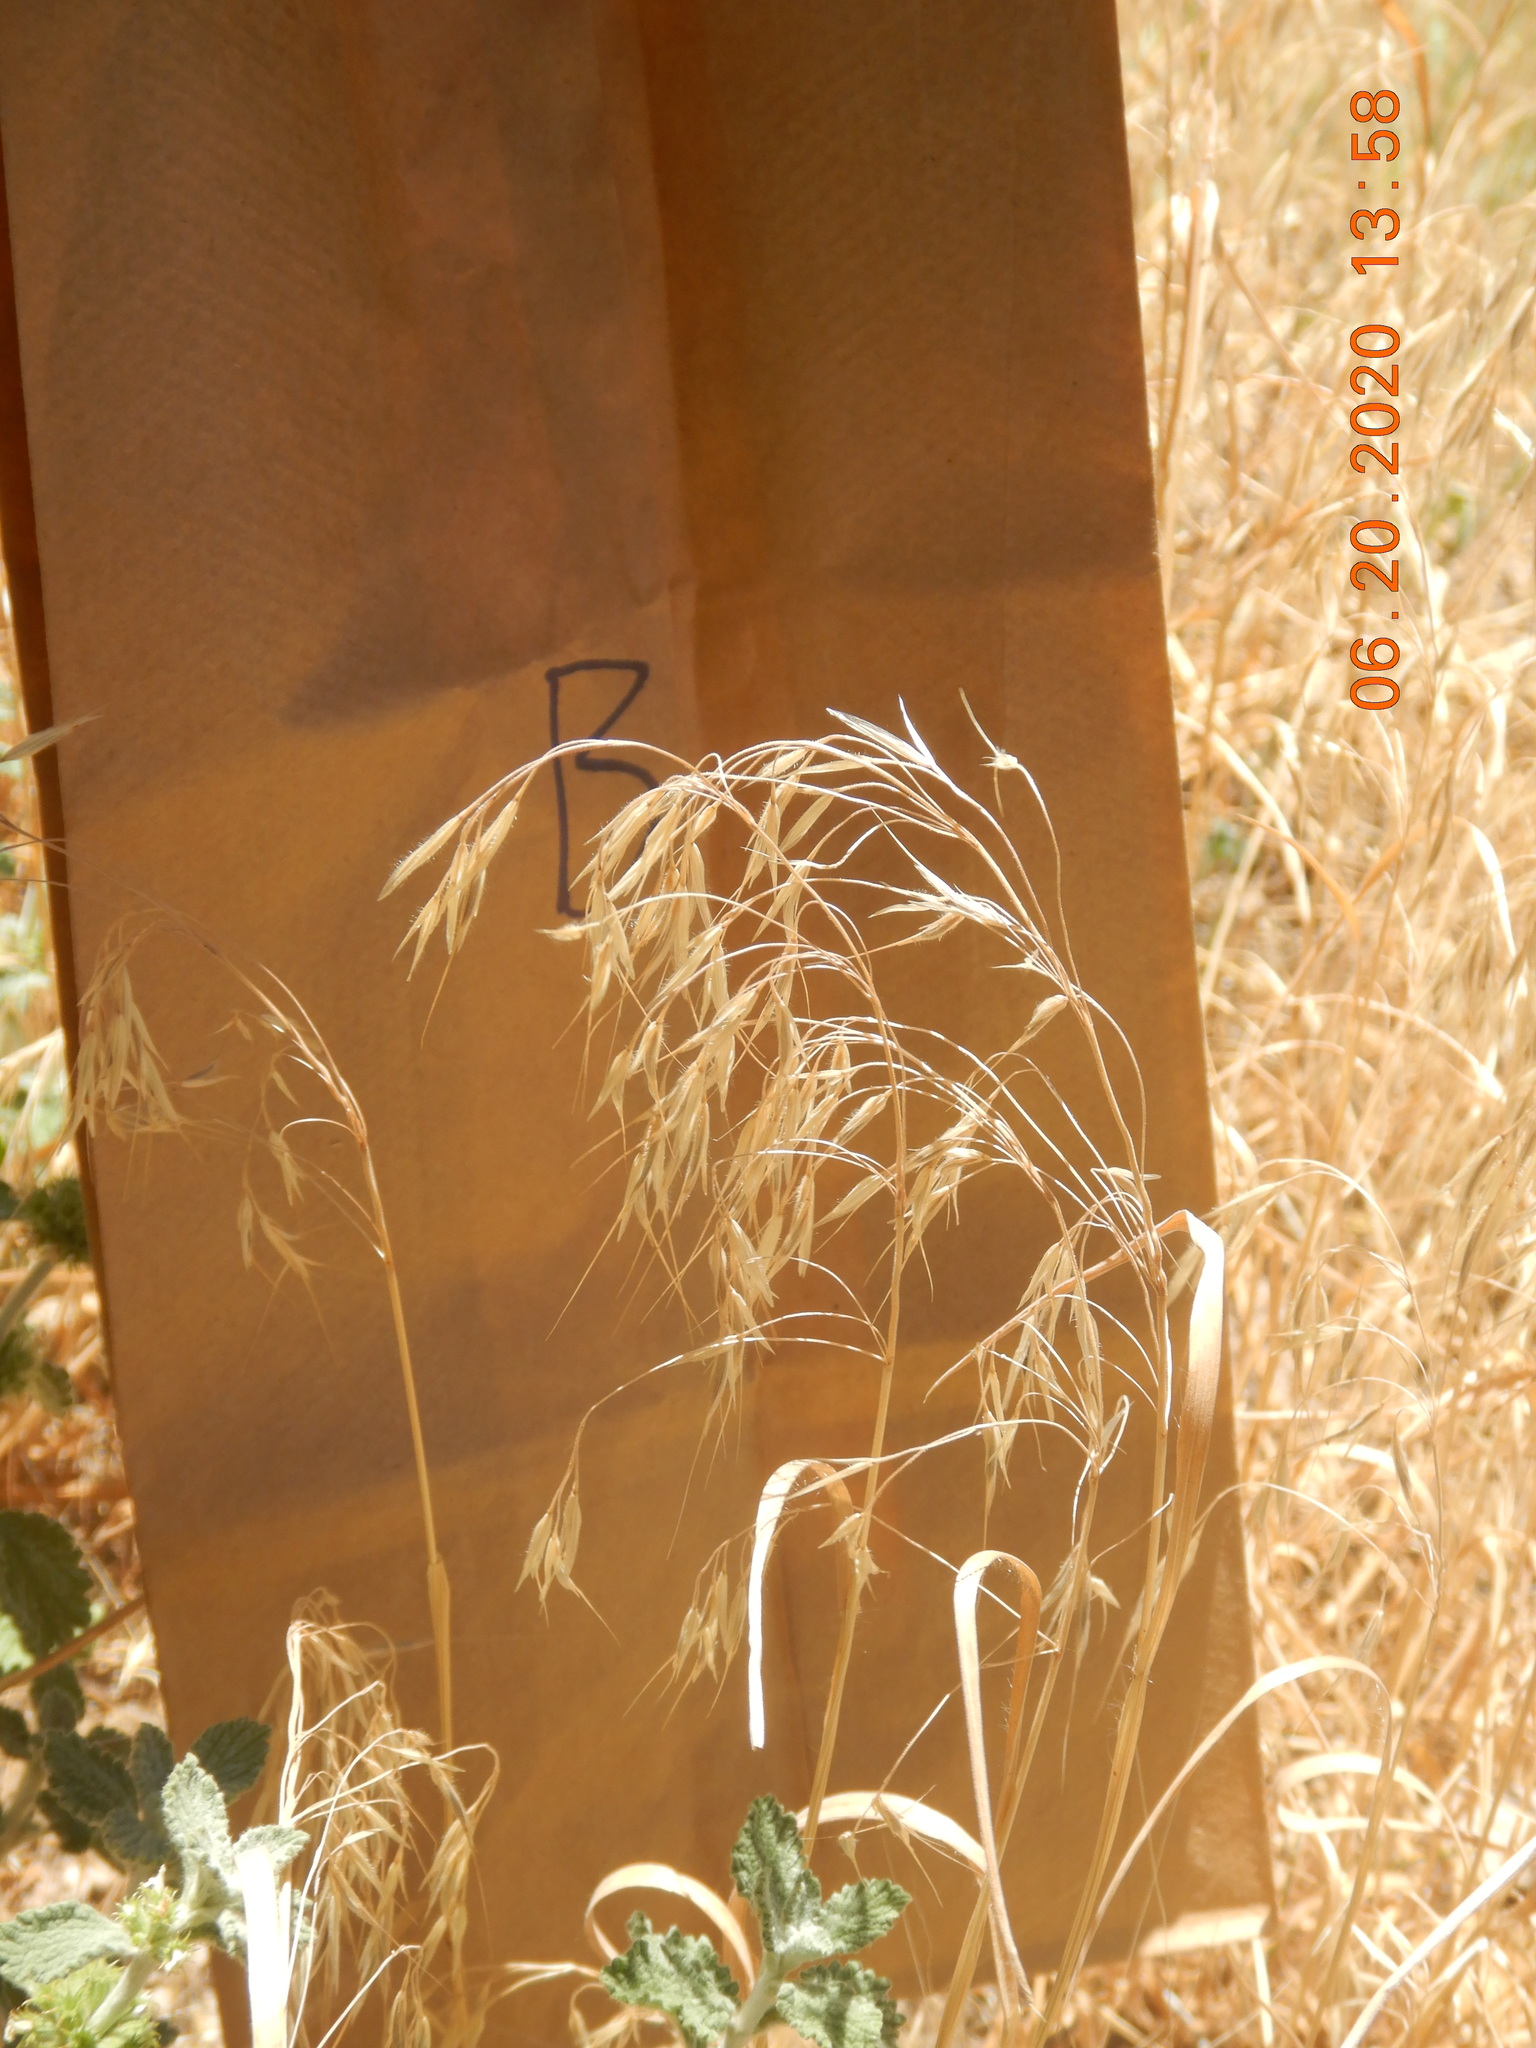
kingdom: Plantae
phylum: Tracheophyta
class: Liliopsida
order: Poales
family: Poaceae
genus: Bromus
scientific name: Bromus tectorum
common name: Cheatgrass
